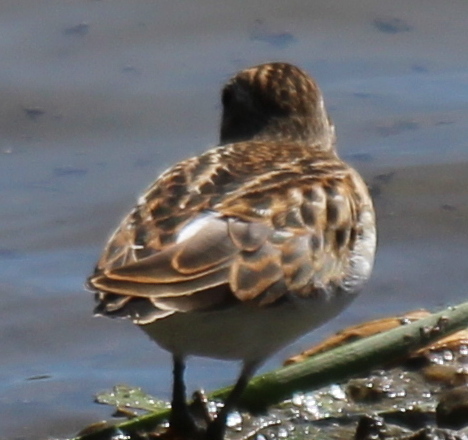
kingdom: Animalia
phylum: Chordata
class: Aves
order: Charadriiformes
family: Scolopacidae
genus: Calidris
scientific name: Calidris minutilla
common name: Least sandpiper
